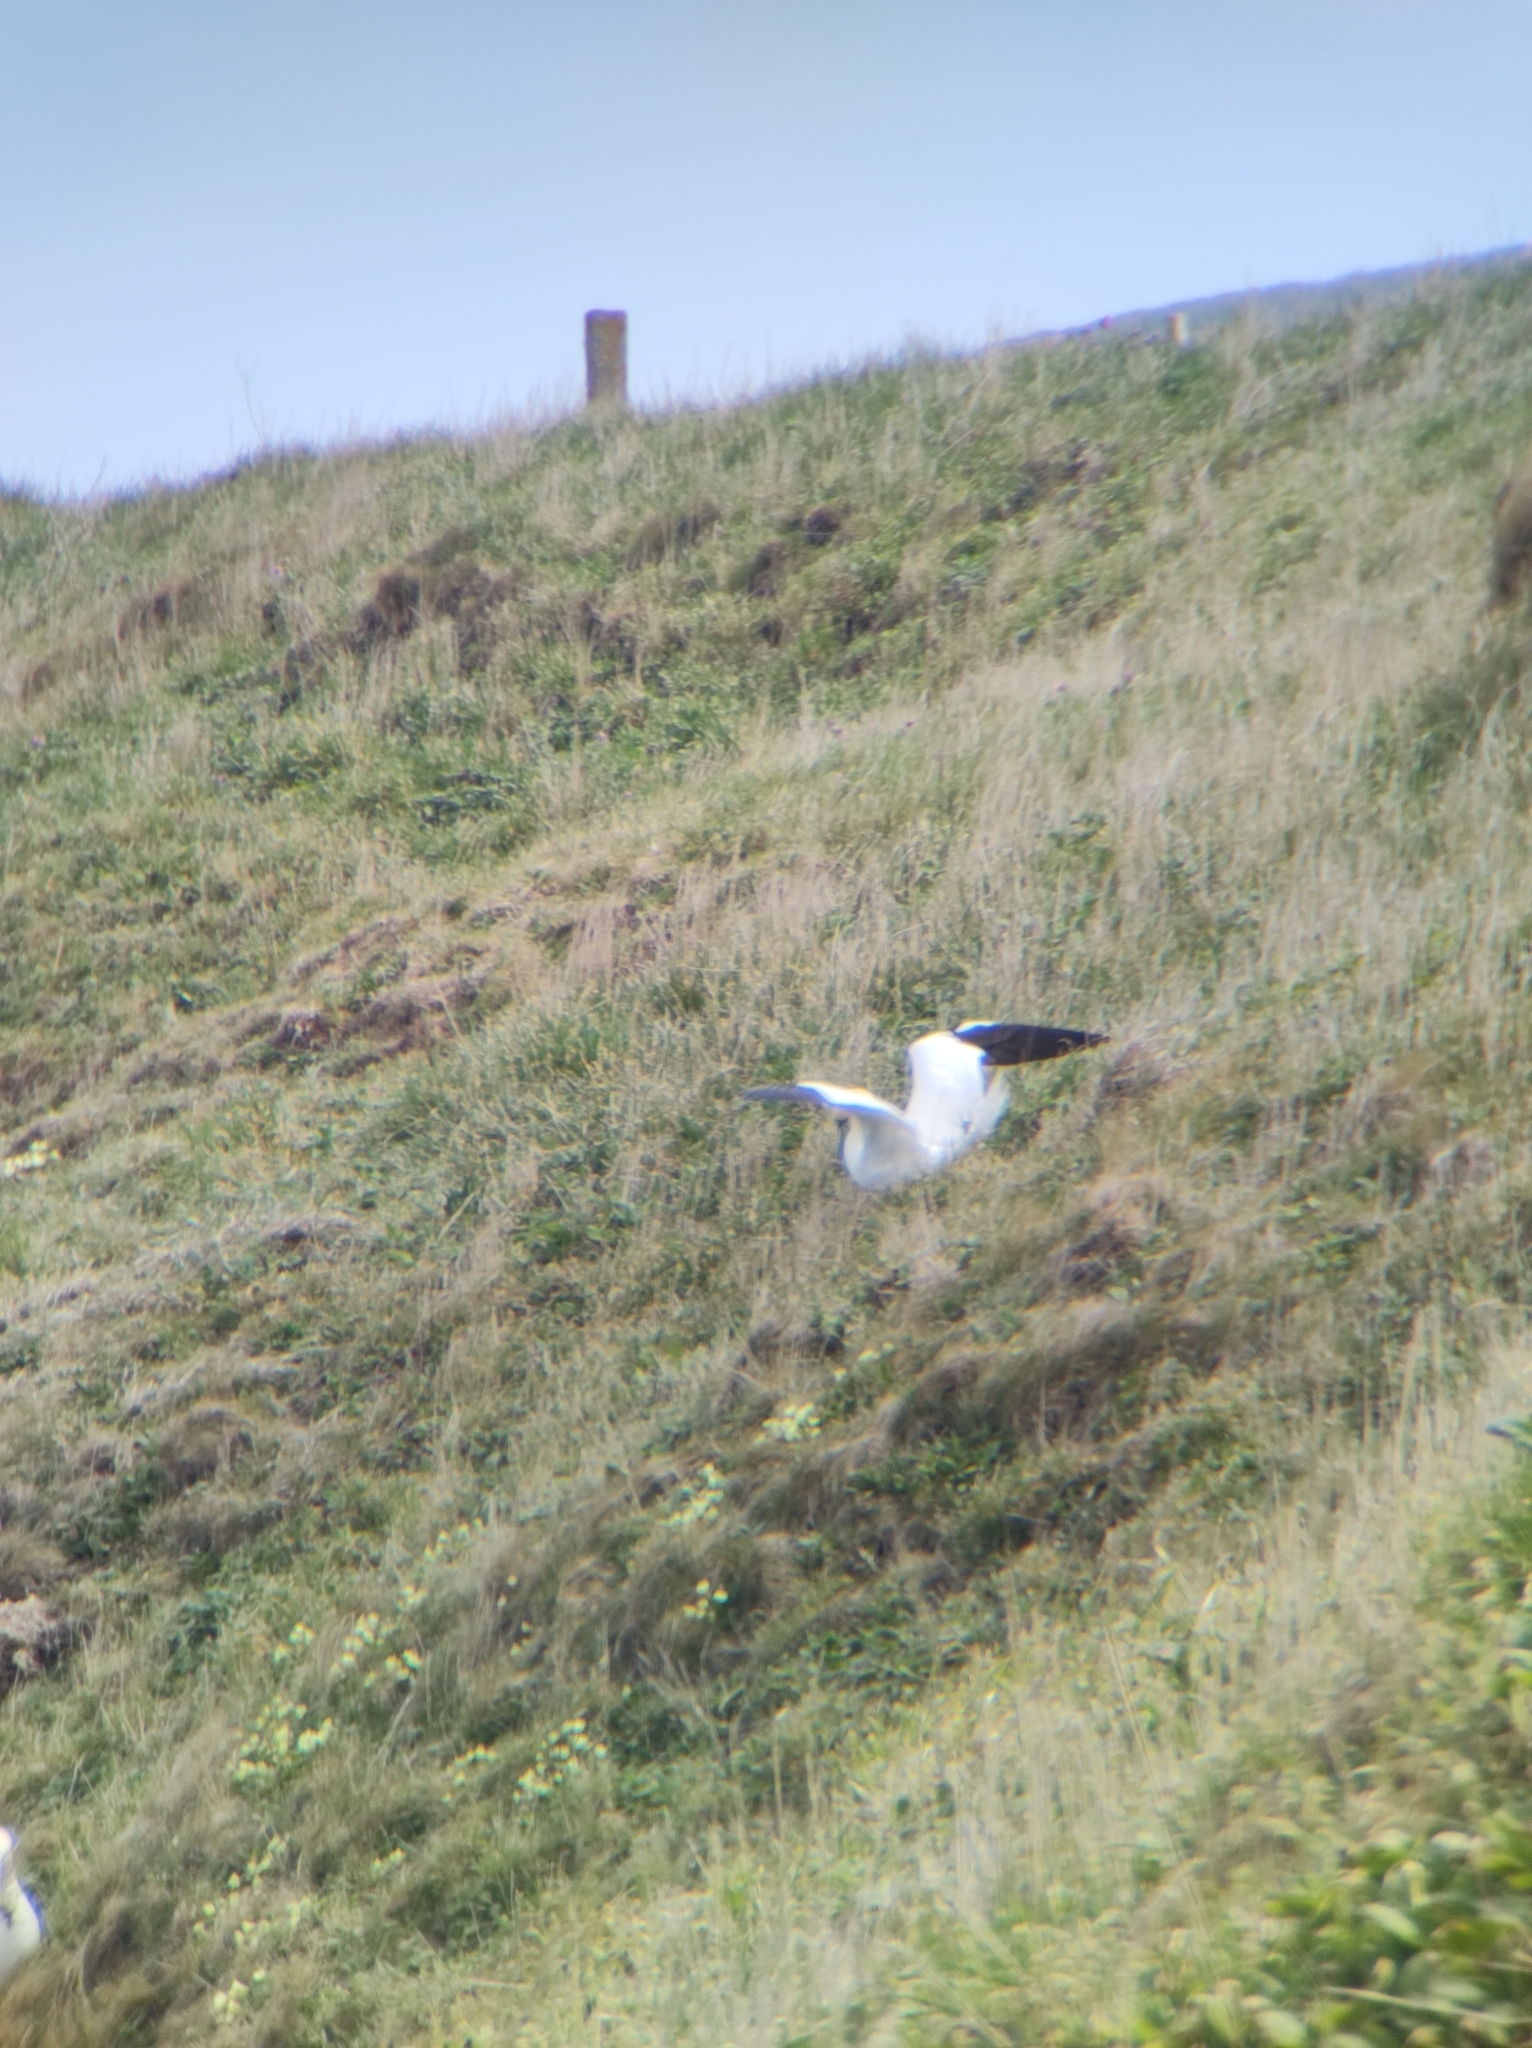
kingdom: Animalia
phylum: Chordata
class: Aves
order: Suliformes
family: Sulidae
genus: Morus
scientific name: Morus bassanus
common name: Northern gannet
